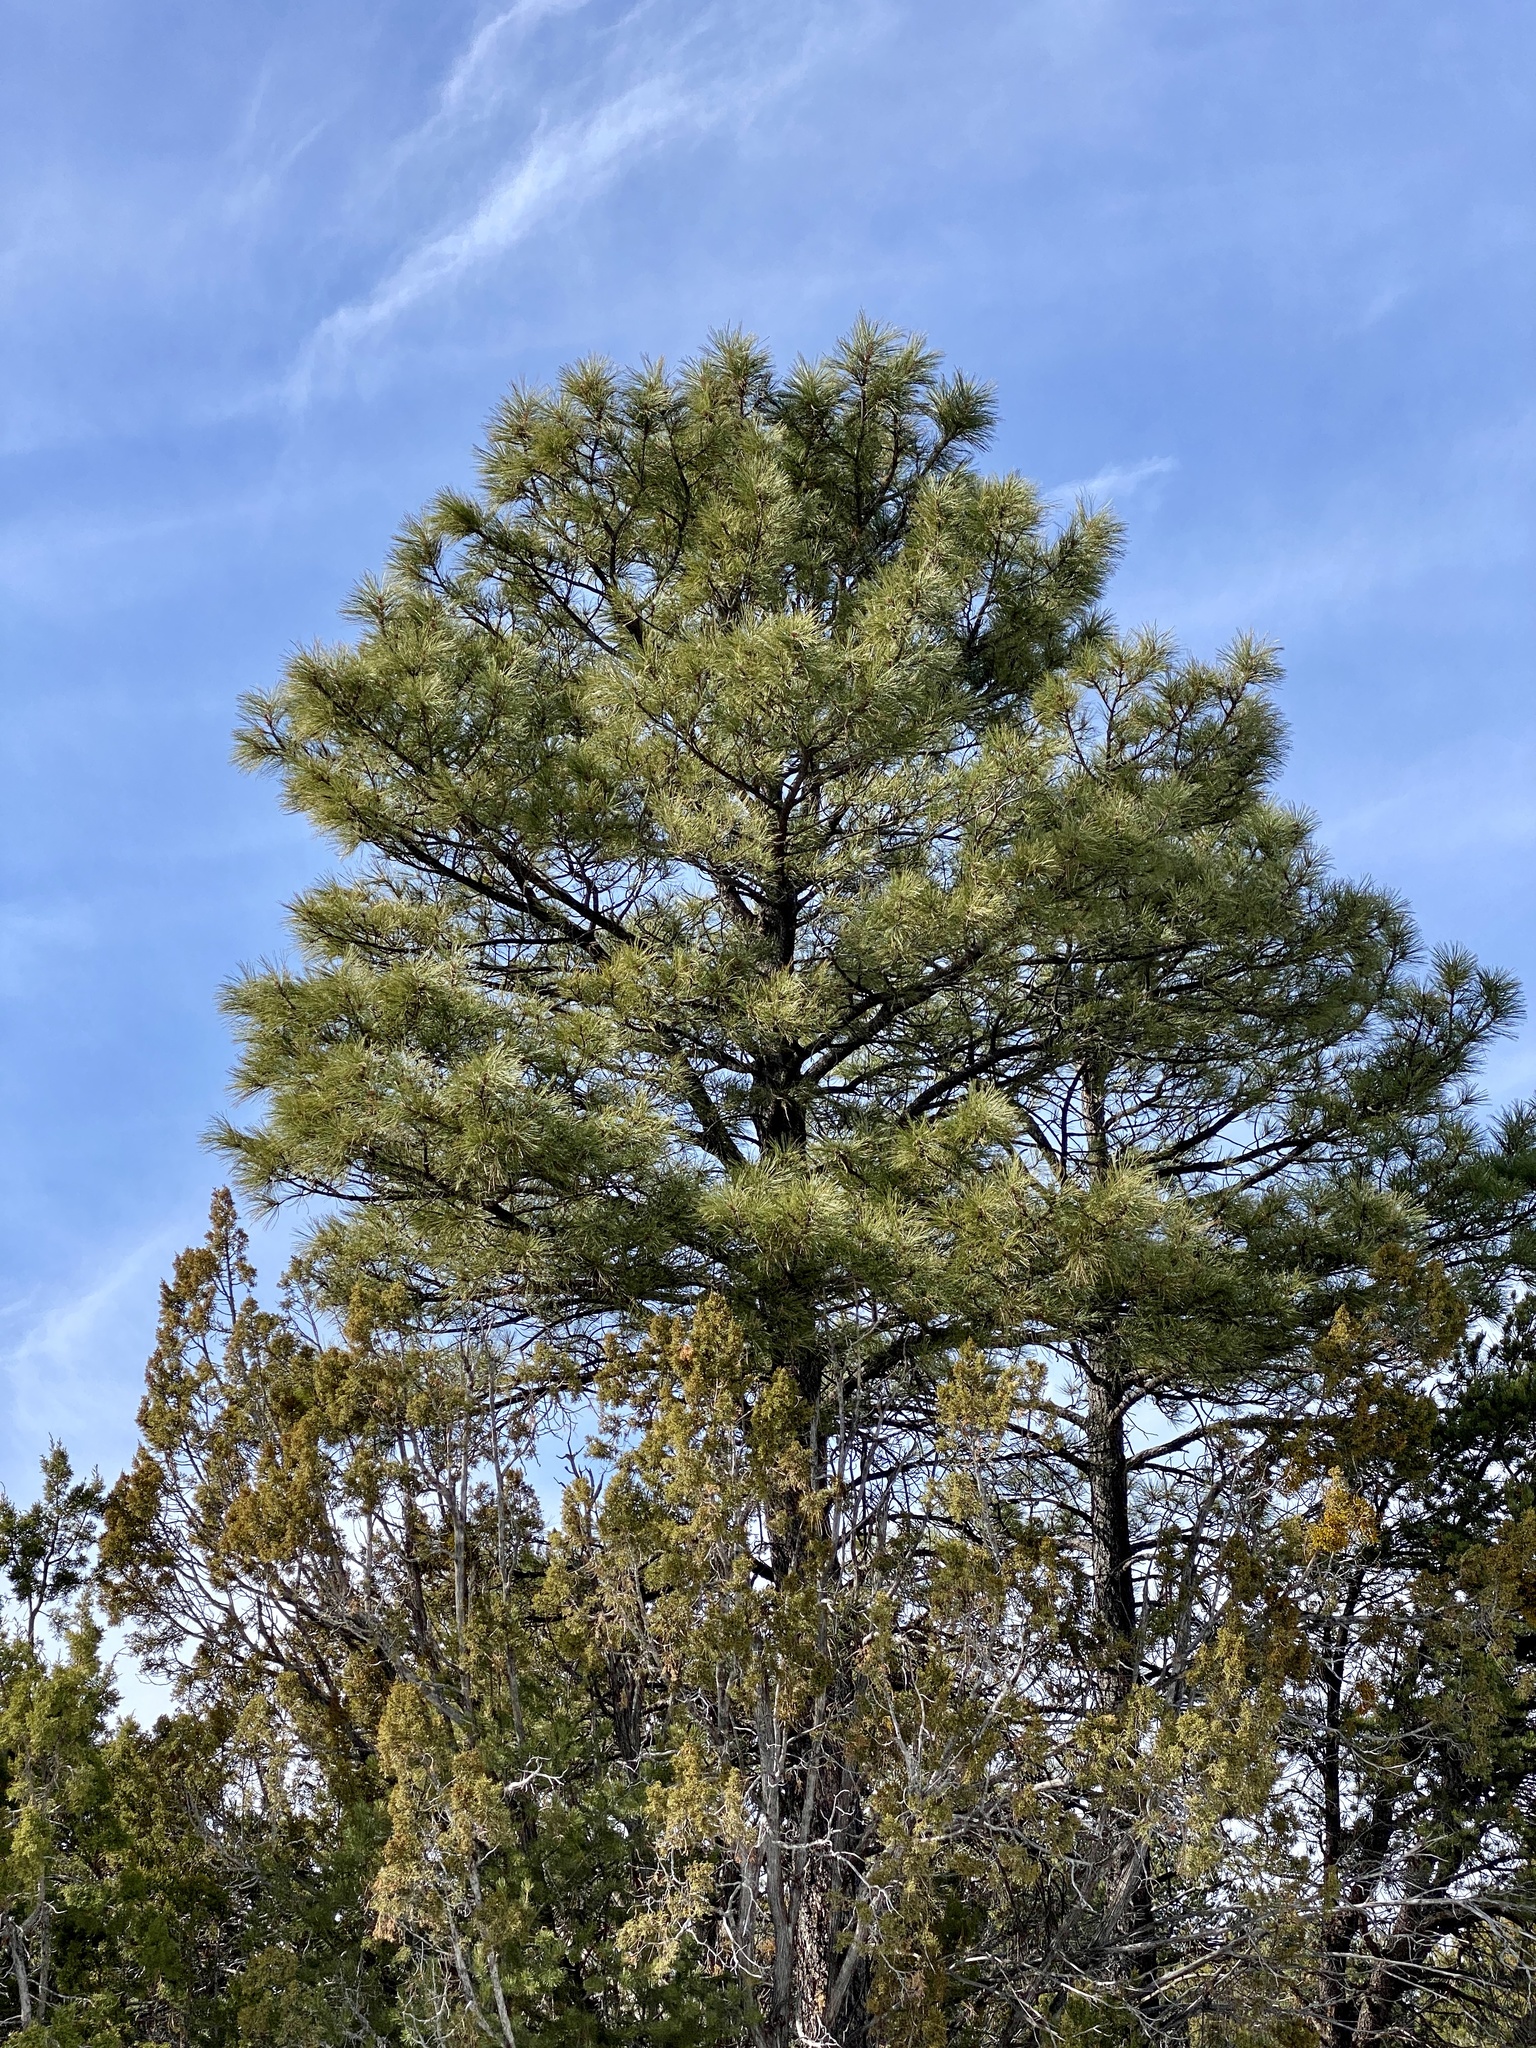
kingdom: Plantae
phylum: Tracheophyta
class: Pinopsida
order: Pinales
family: Pinaceae
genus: Pinus
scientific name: Pinus ponderosa
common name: Western yellow-pine
